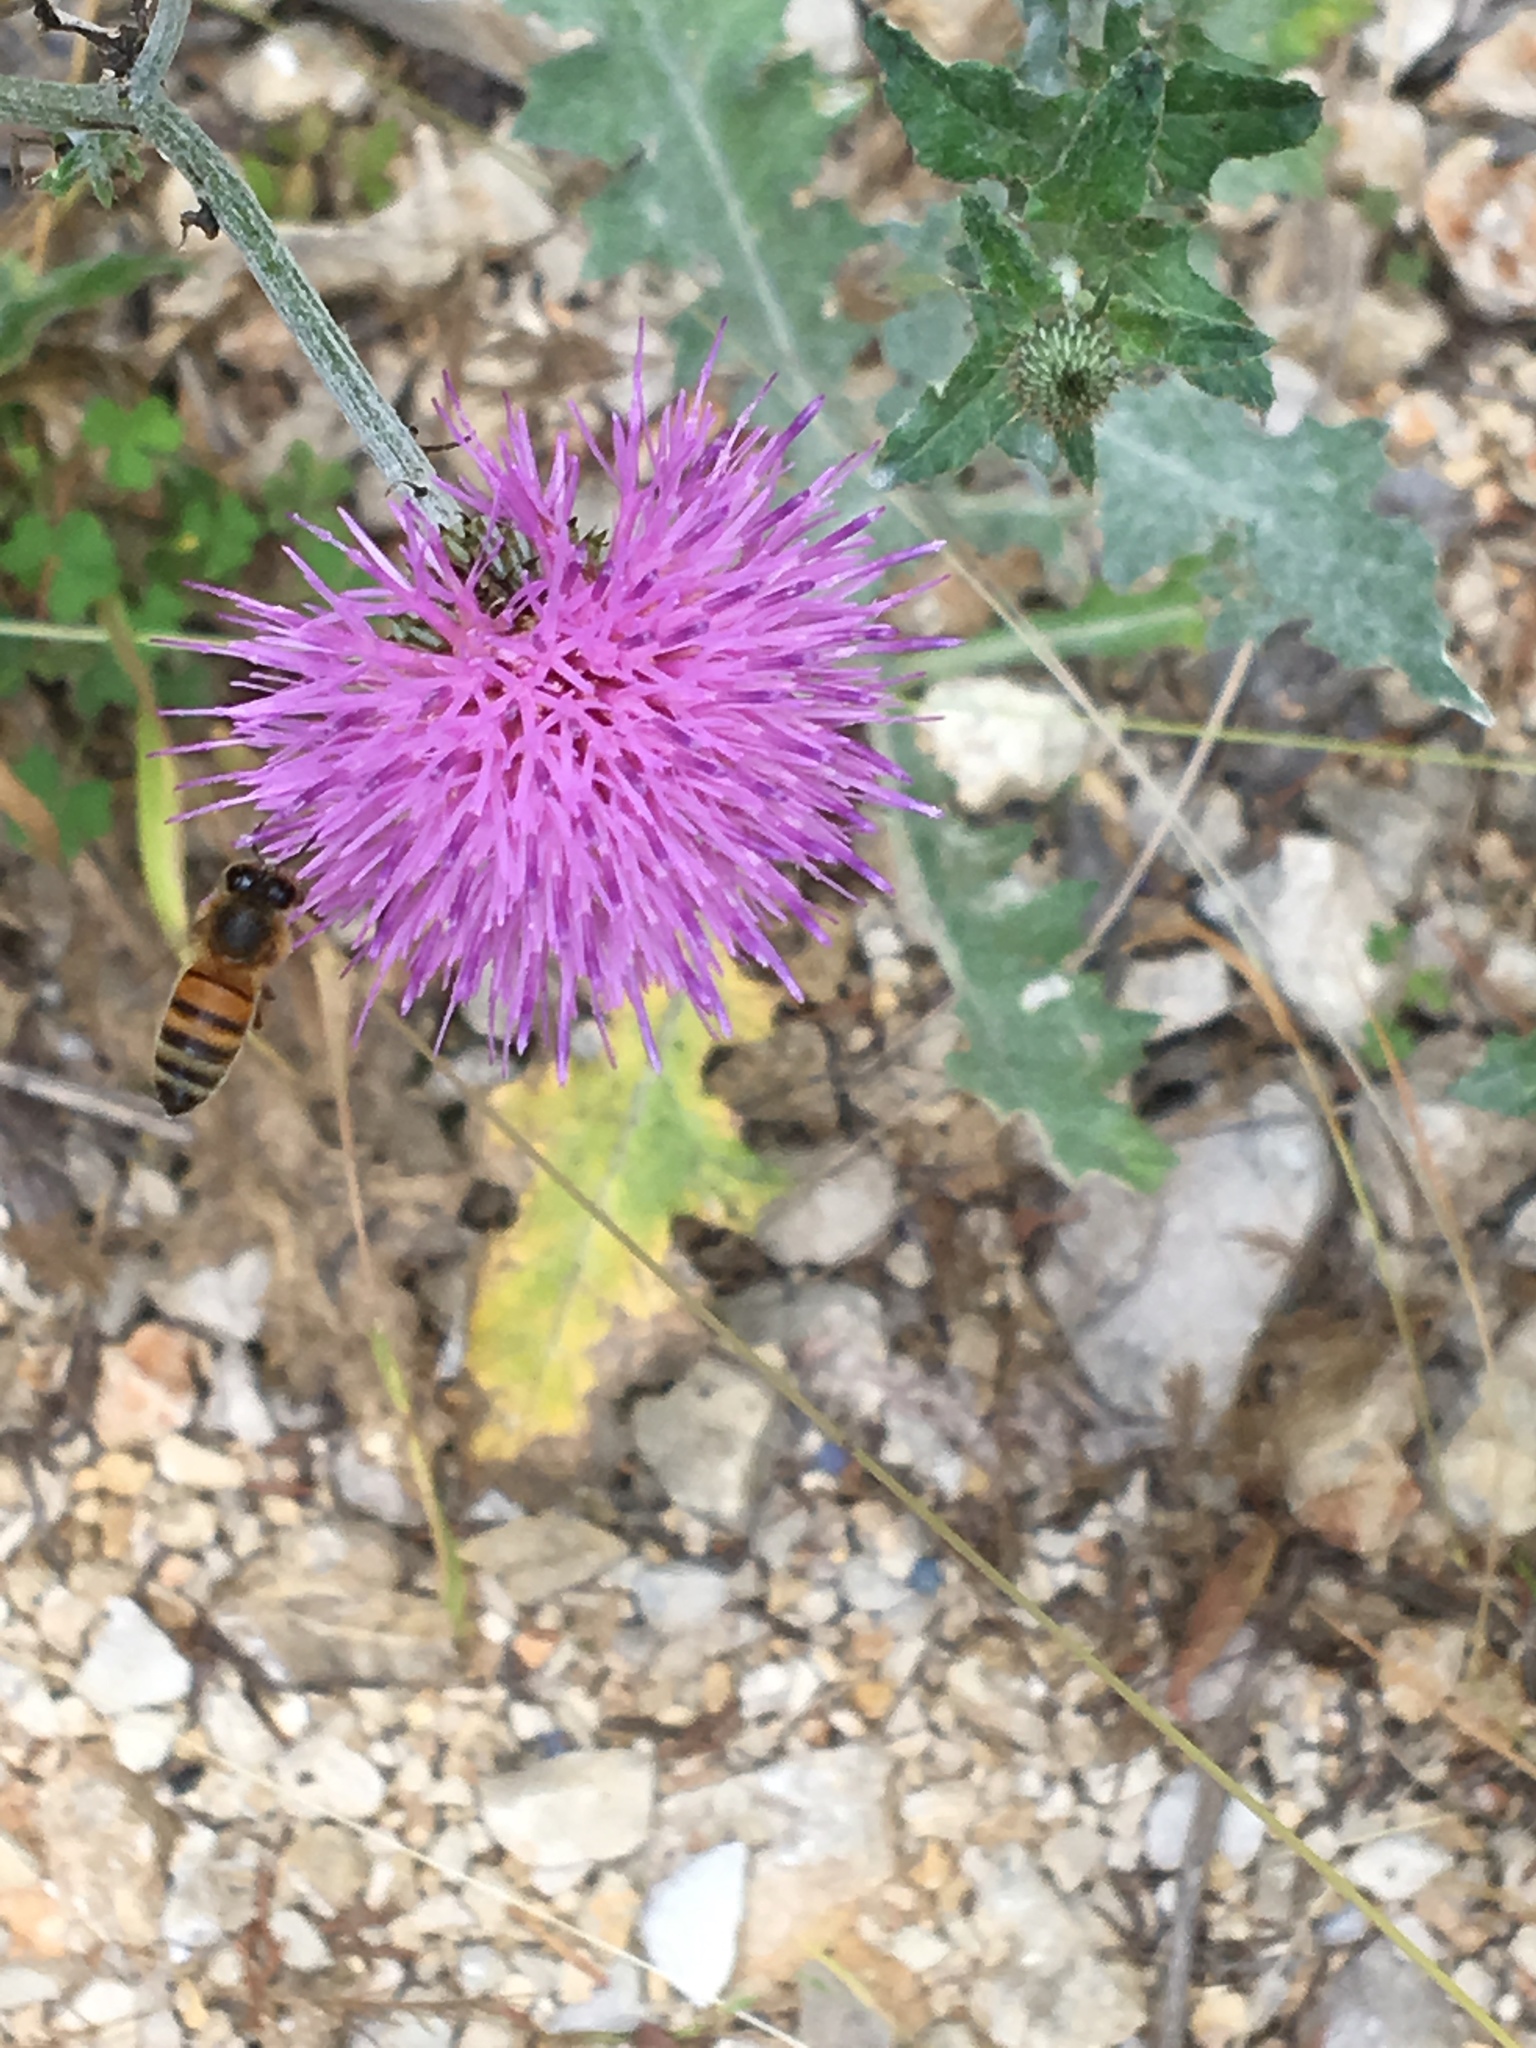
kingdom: Animalia
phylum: Arthropoda
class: Insecta
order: Hymenoptera
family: Apidae
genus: Apis
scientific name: Apis mellifera
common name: Honey bee
